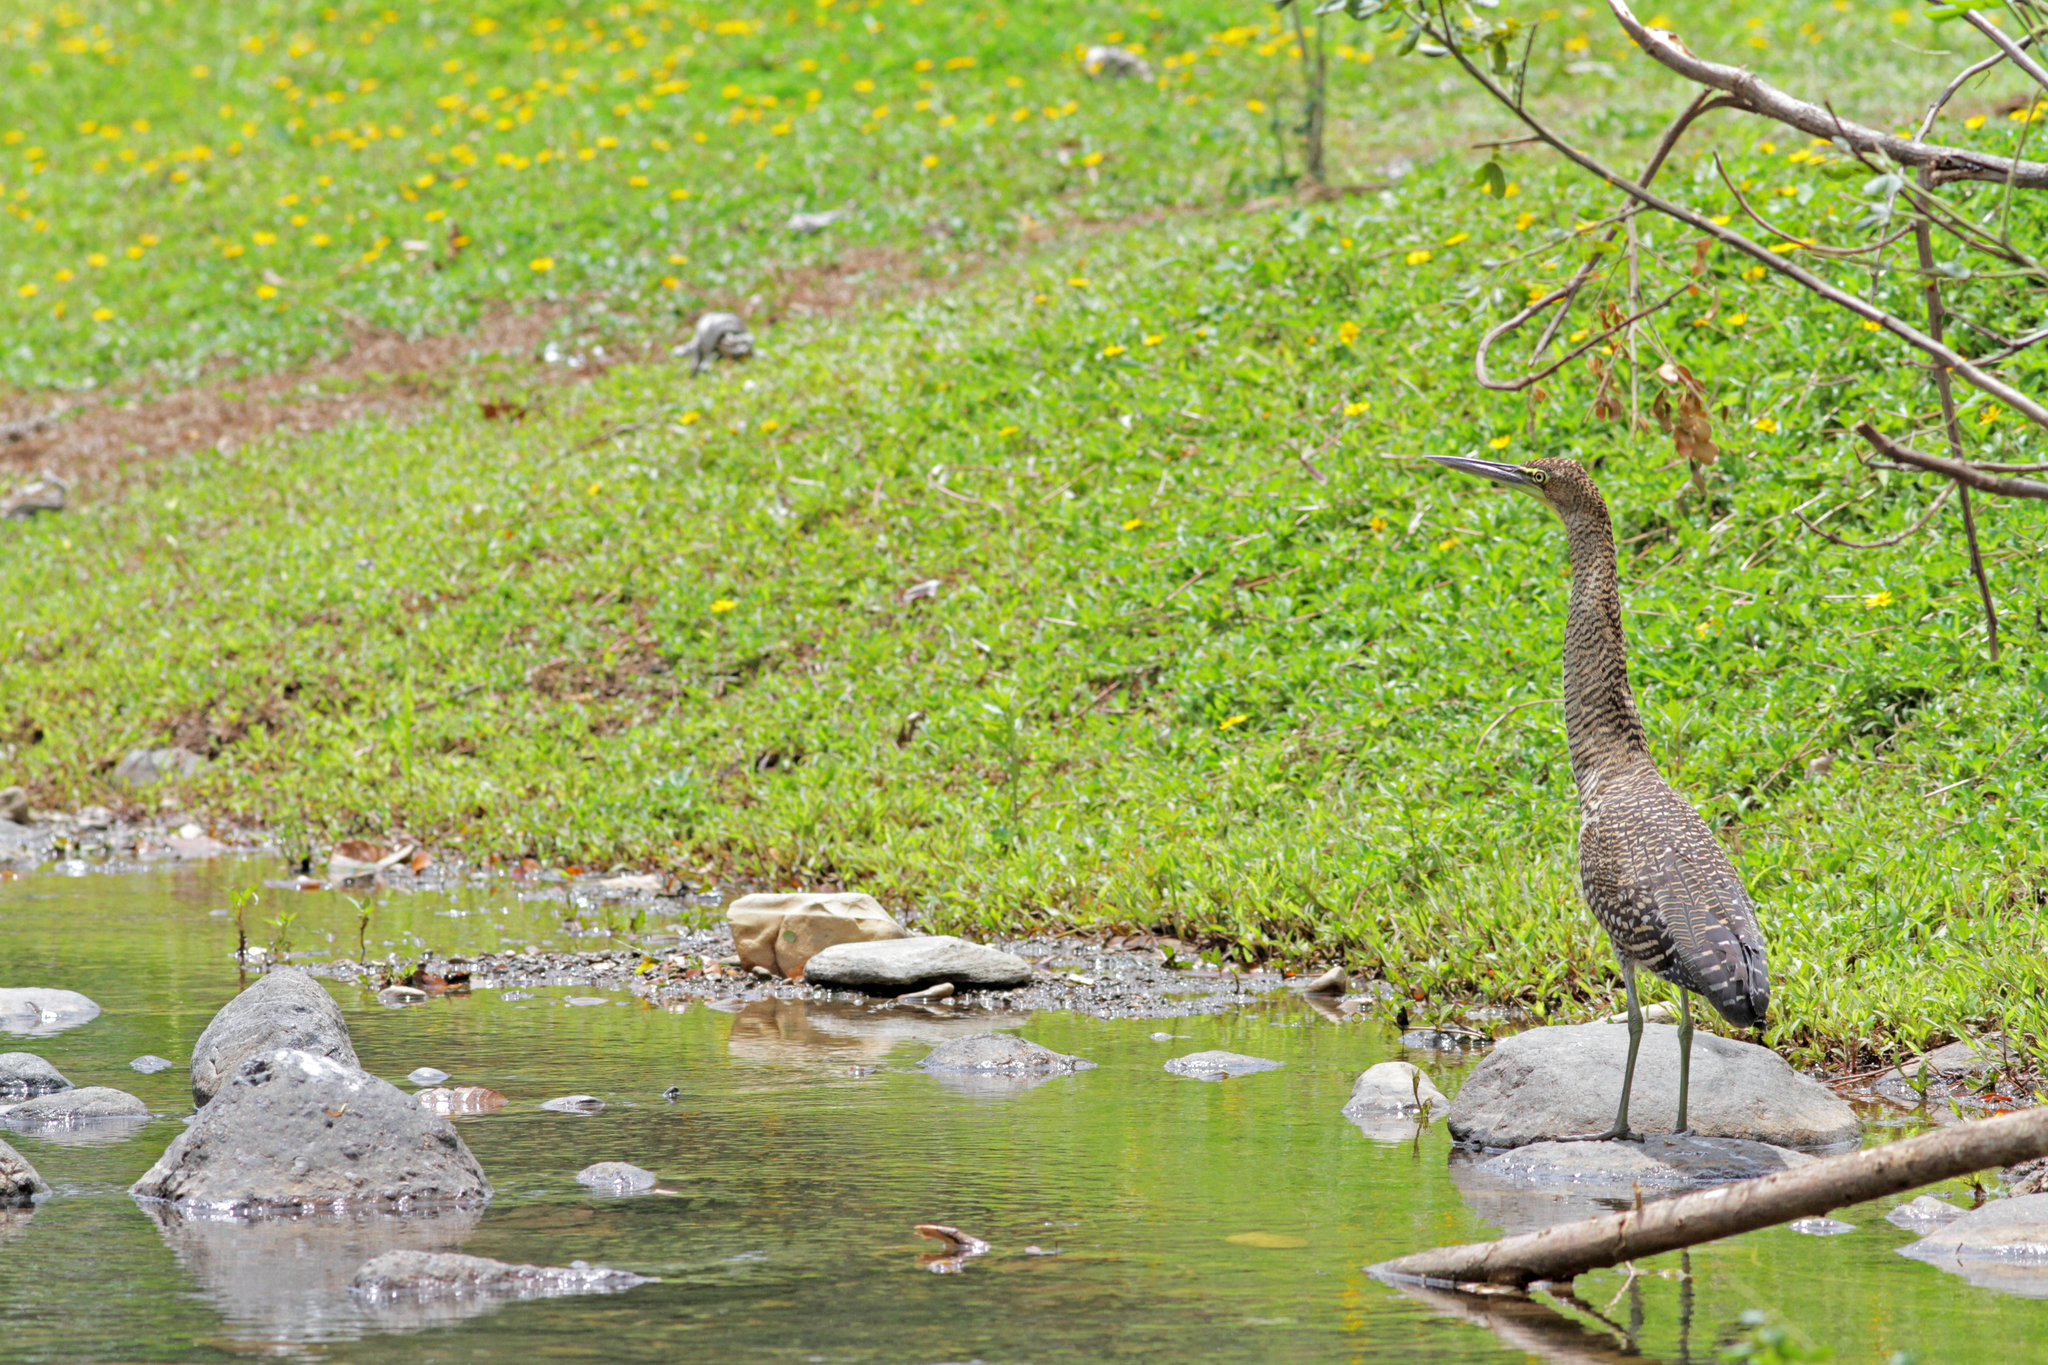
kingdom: Animalia
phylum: Chordata
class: Aves
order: Pelecaniformes
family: Ardeidae
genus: Tigrisoma
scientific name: Tigrisoma mexicanum
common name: Bare-throated tiger-heron
